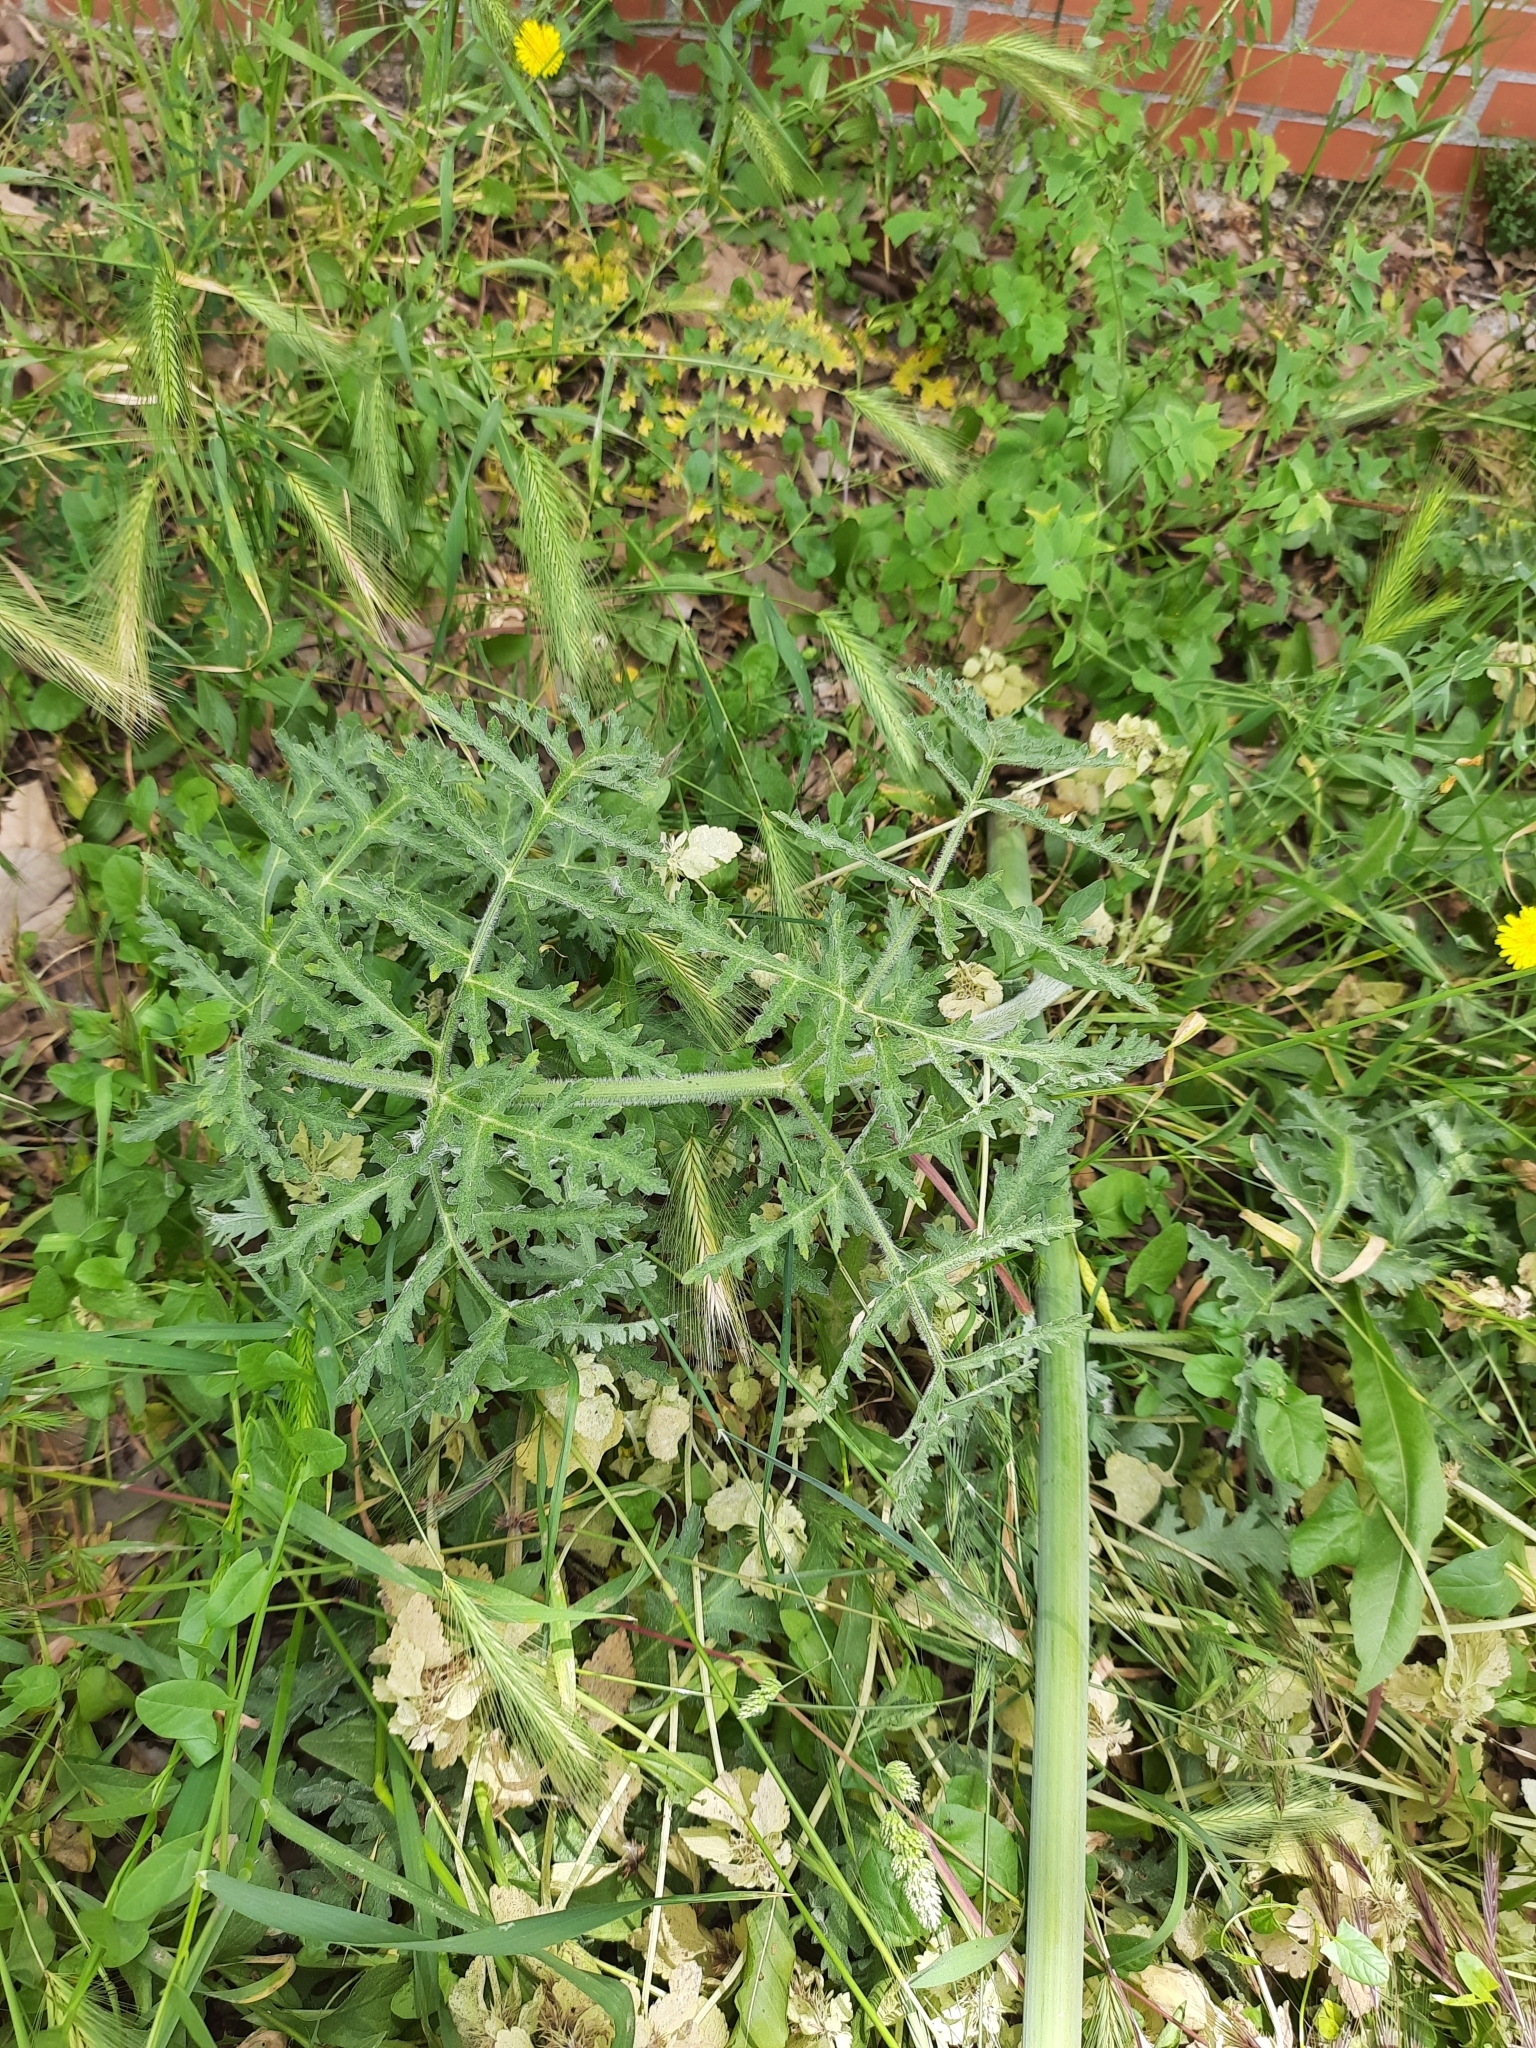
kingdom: Plantae
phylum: Tracheophyta
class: Magnoliopsida
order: Apiales
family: Apiaceae
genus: Thapsia
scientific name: Thapsia villosa
